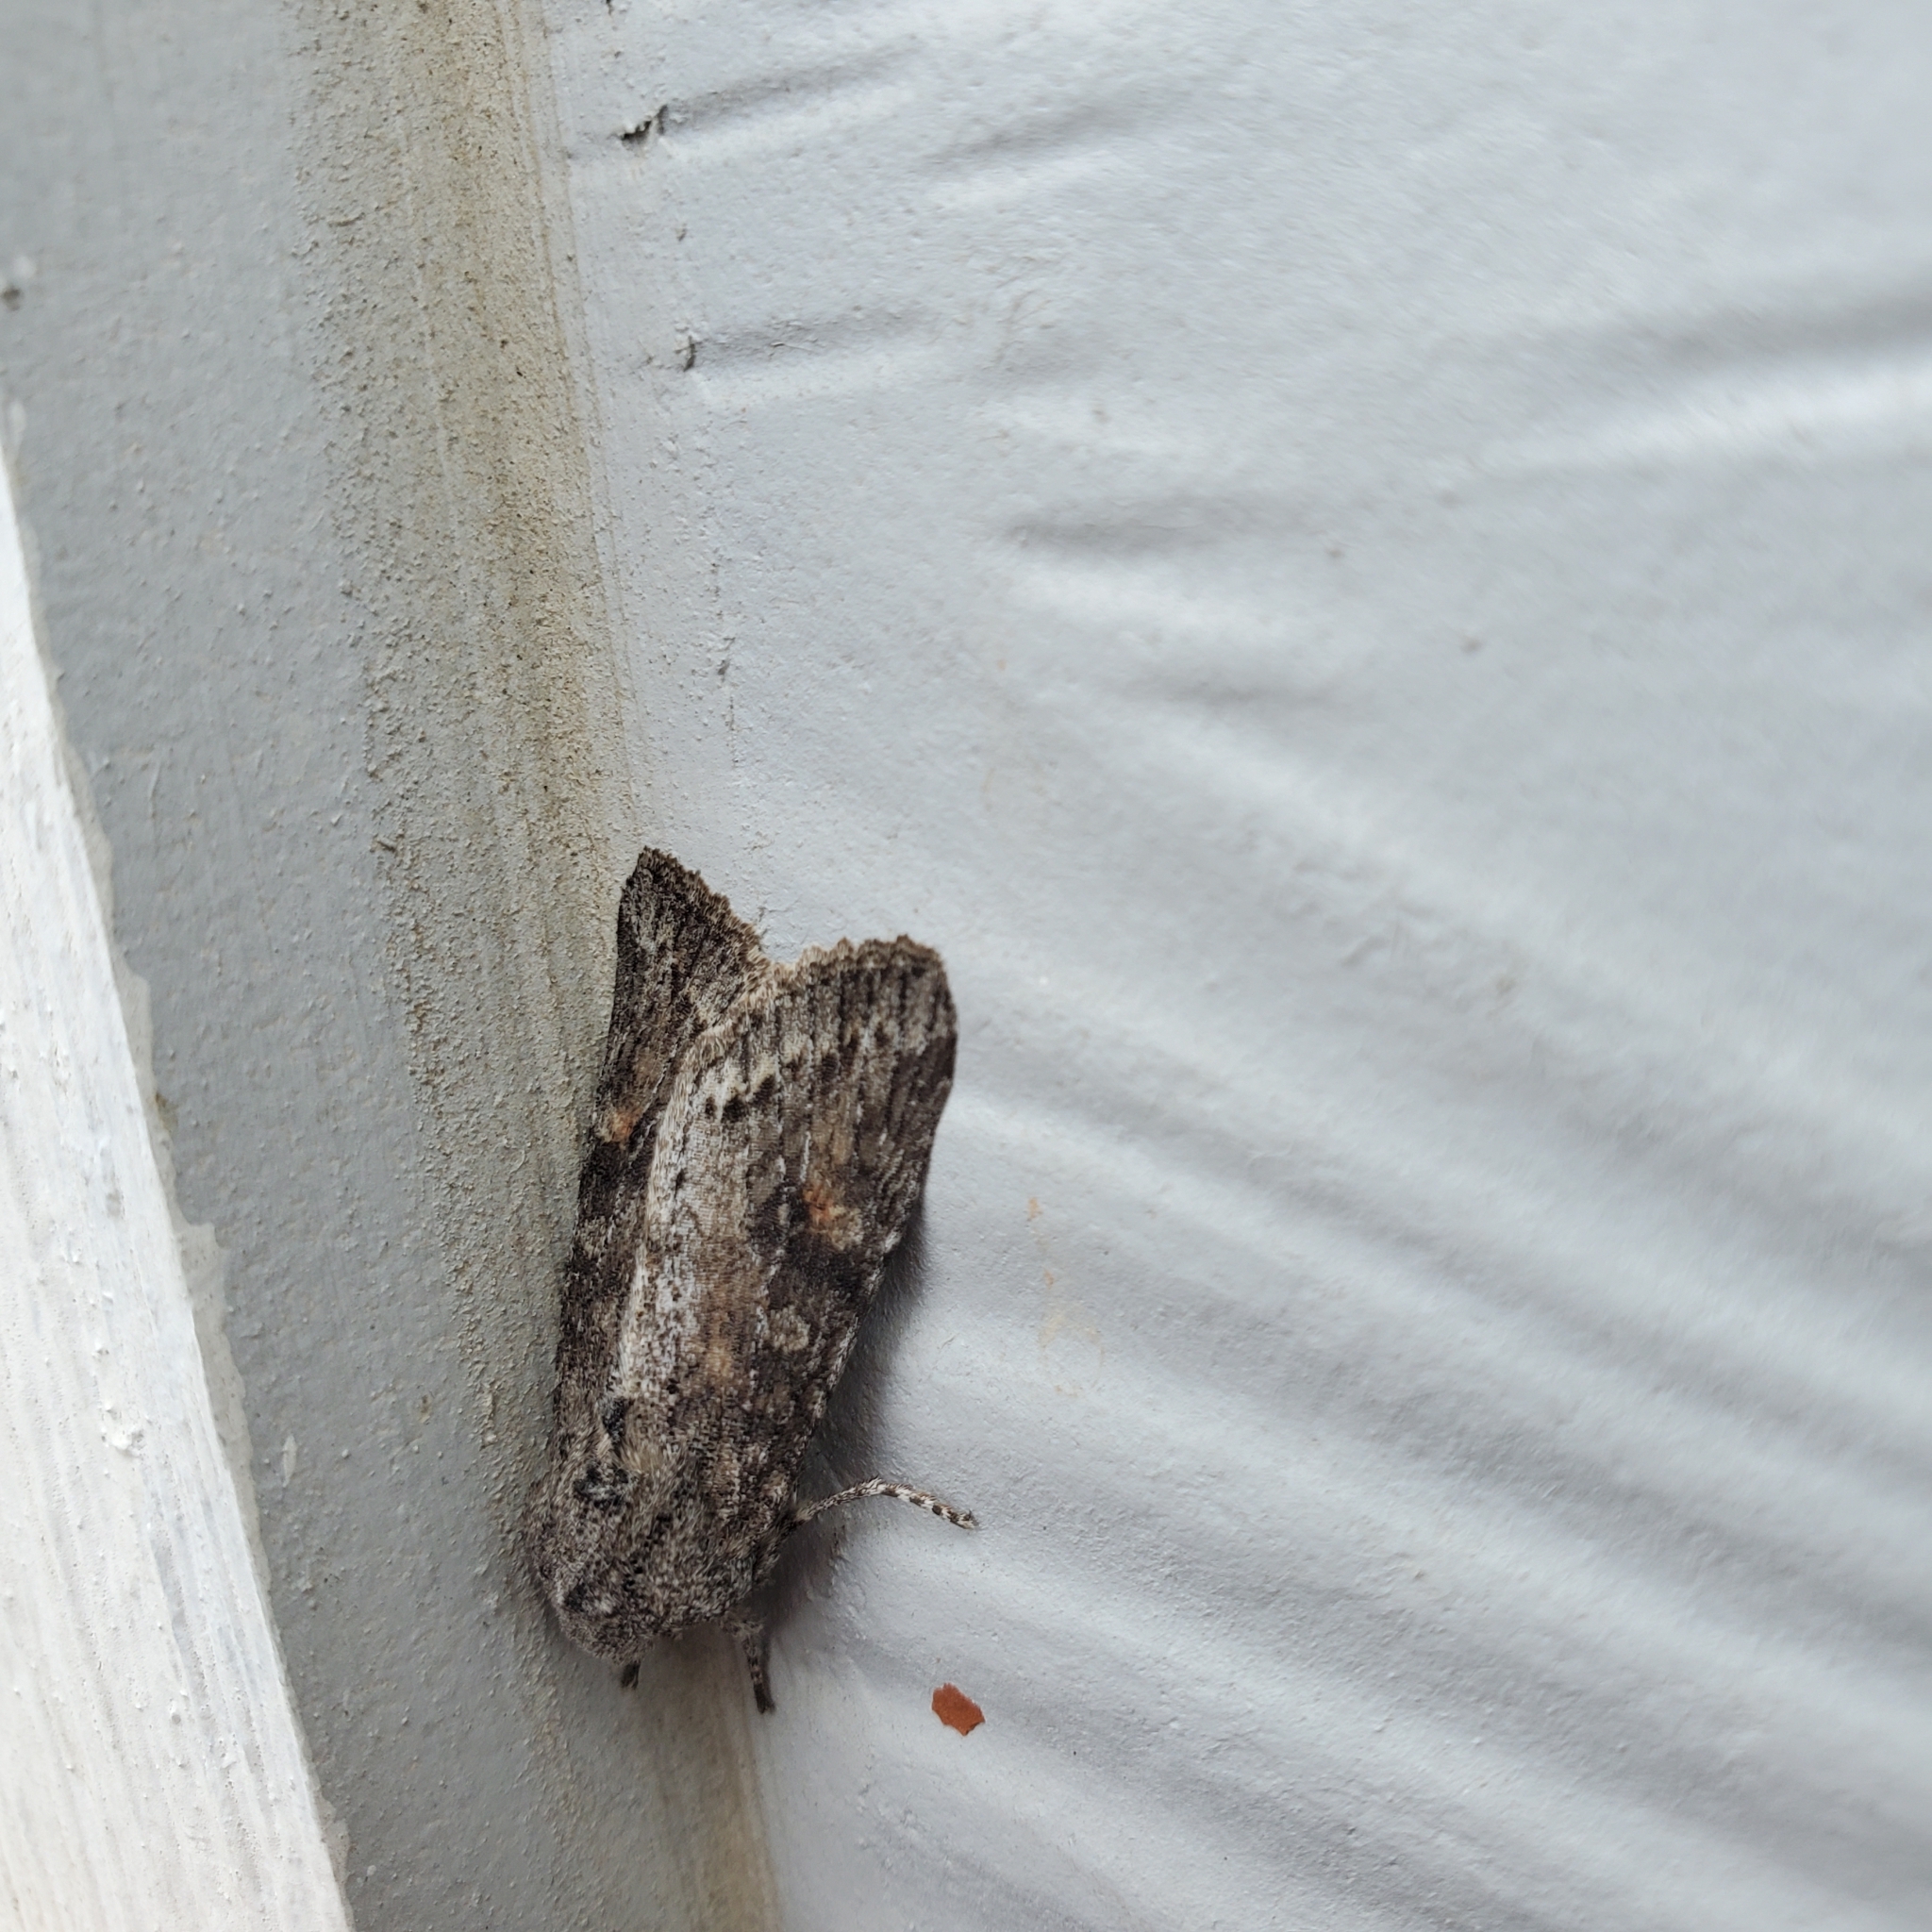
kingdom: Animalia
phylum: Arthropoda
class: Insecta
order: Lepidoptera
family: Noctuidae
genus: Egira
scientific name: Egira hiemalis
